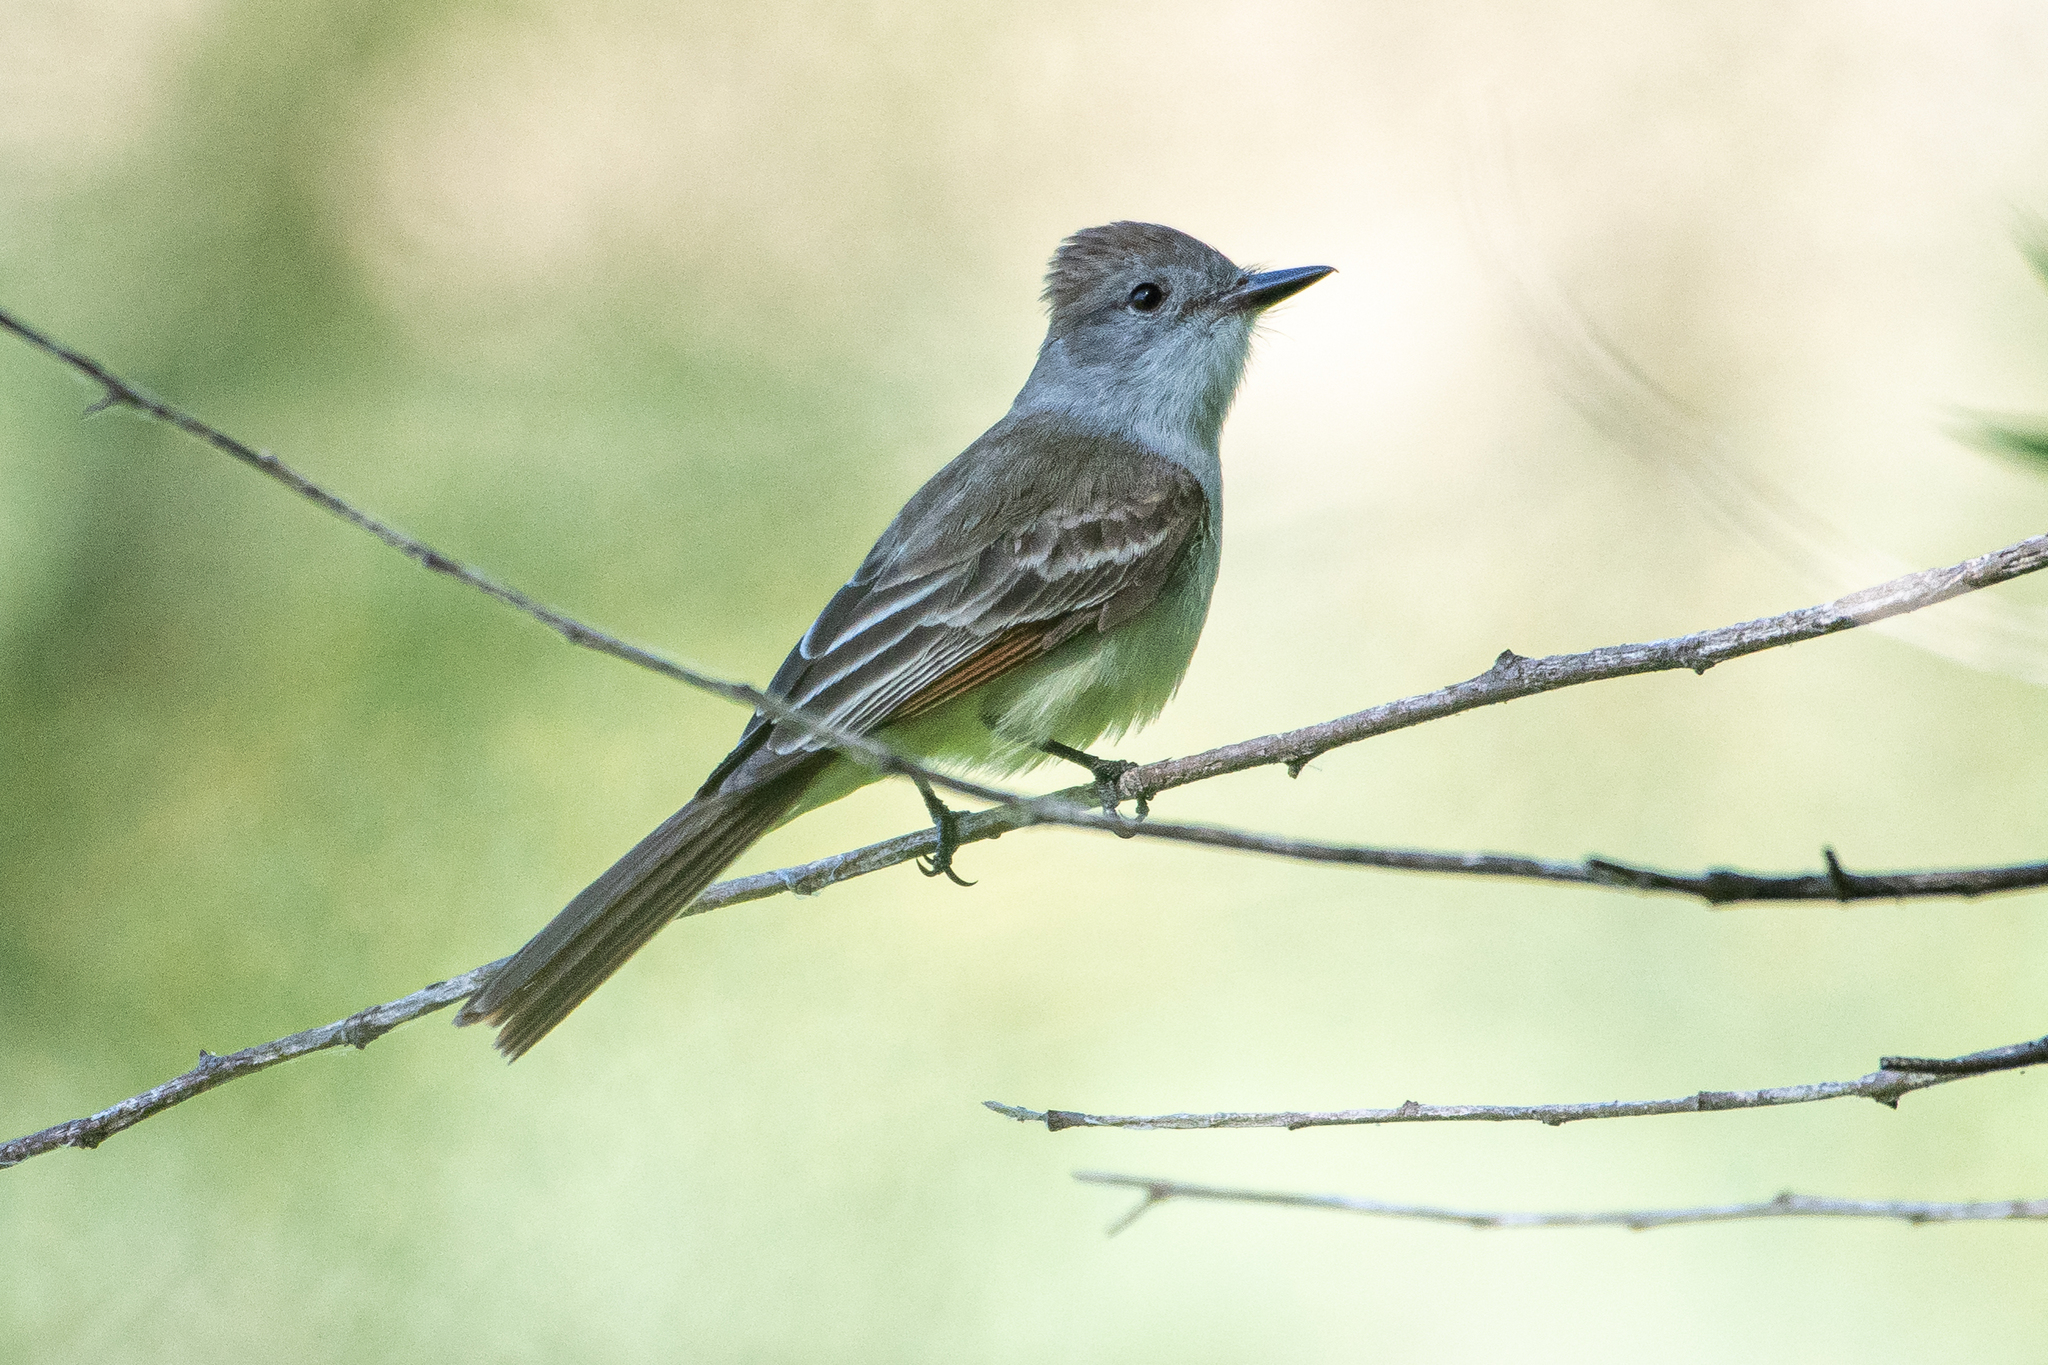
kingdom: Animalia
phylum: Chordata
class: Aves
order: Passeriformes
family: Tyrannidae
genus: Myiarchus
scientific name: Myiarchus cinerascens
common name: Ash-throated flycatcher
